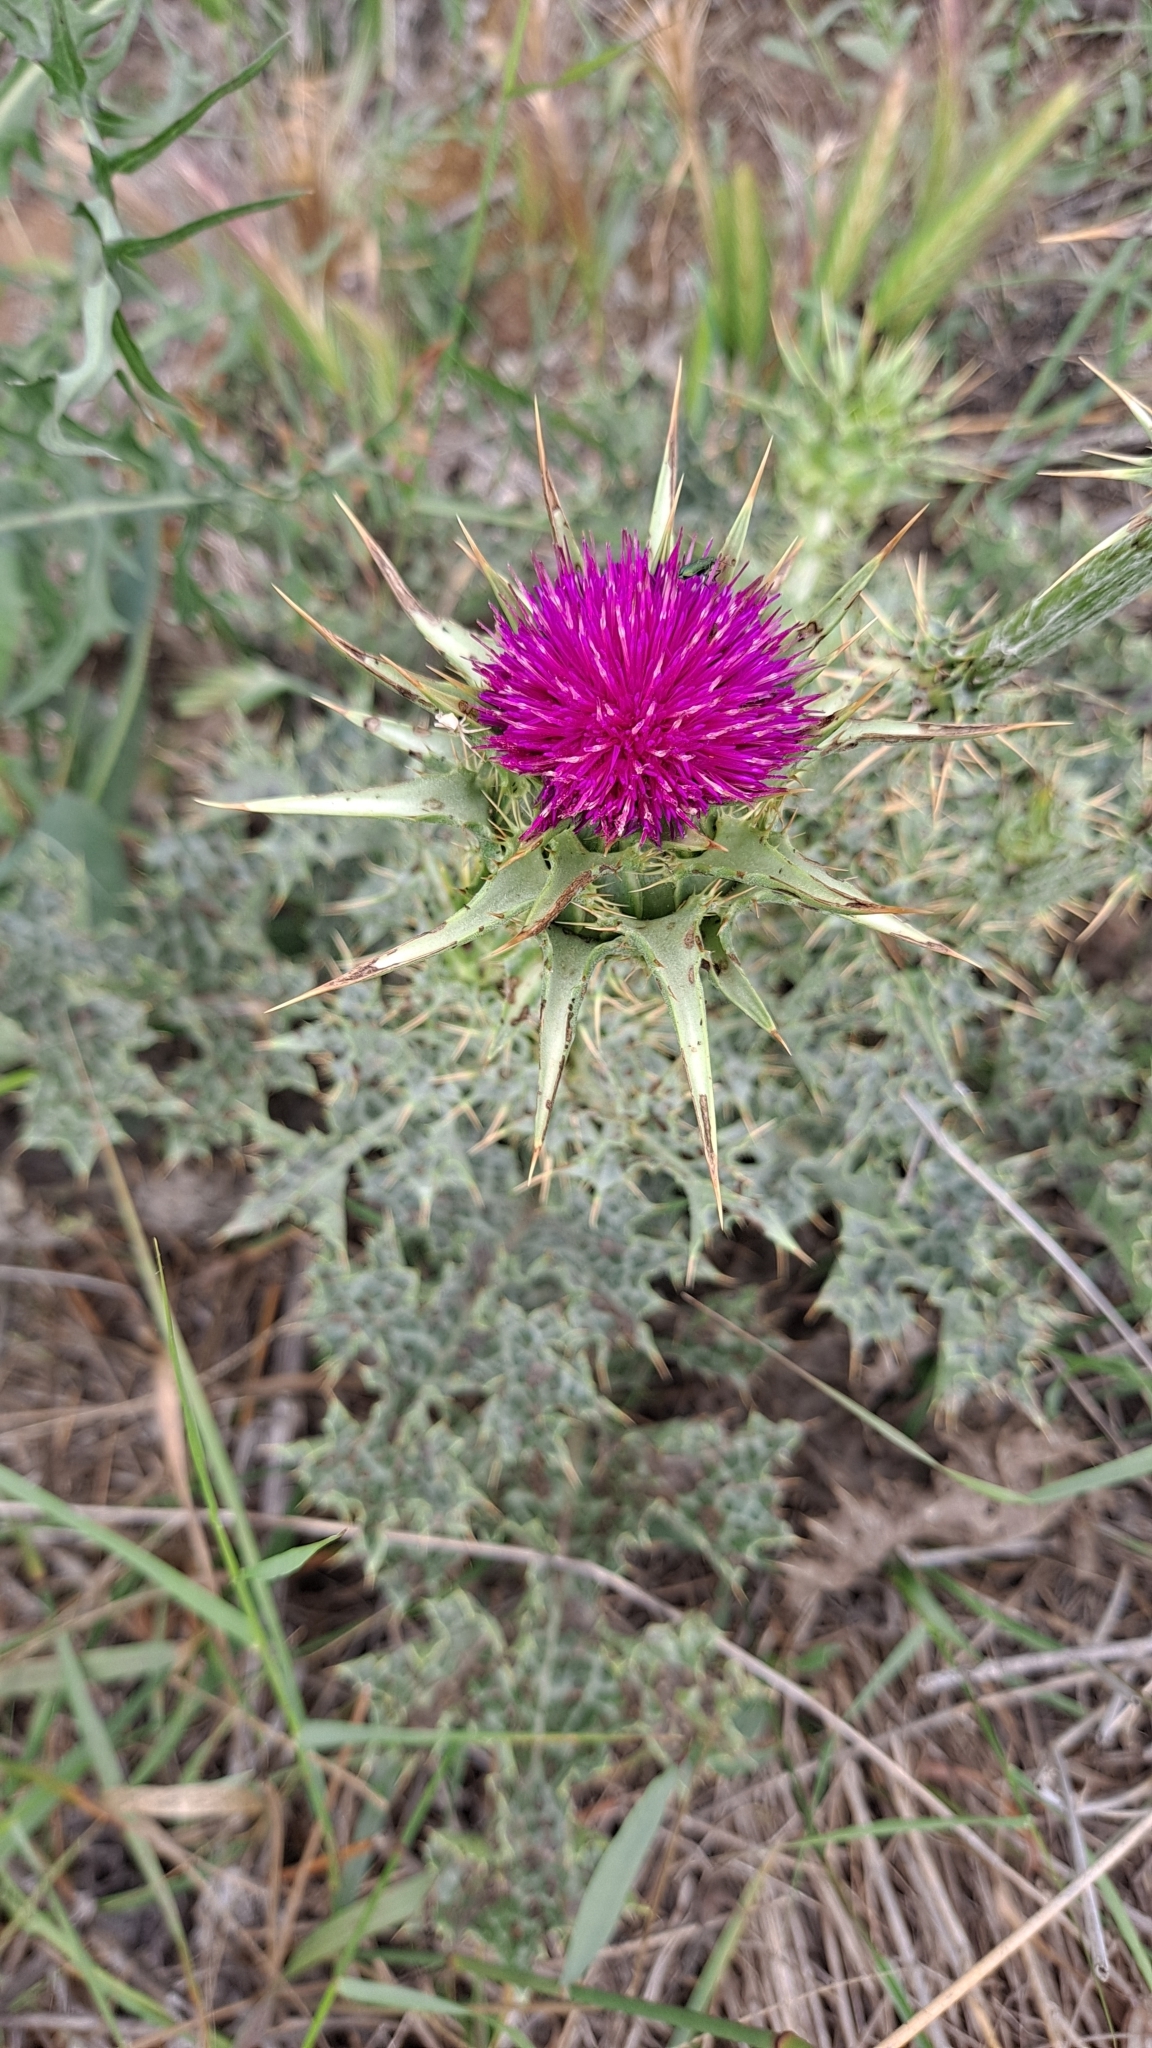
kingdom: Plantae
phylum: Tracheophyta
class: Magnoliopsida
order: Asterales
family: Asteraceae
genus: Silybum
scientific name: Silybum marianum
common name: Milk thistle
